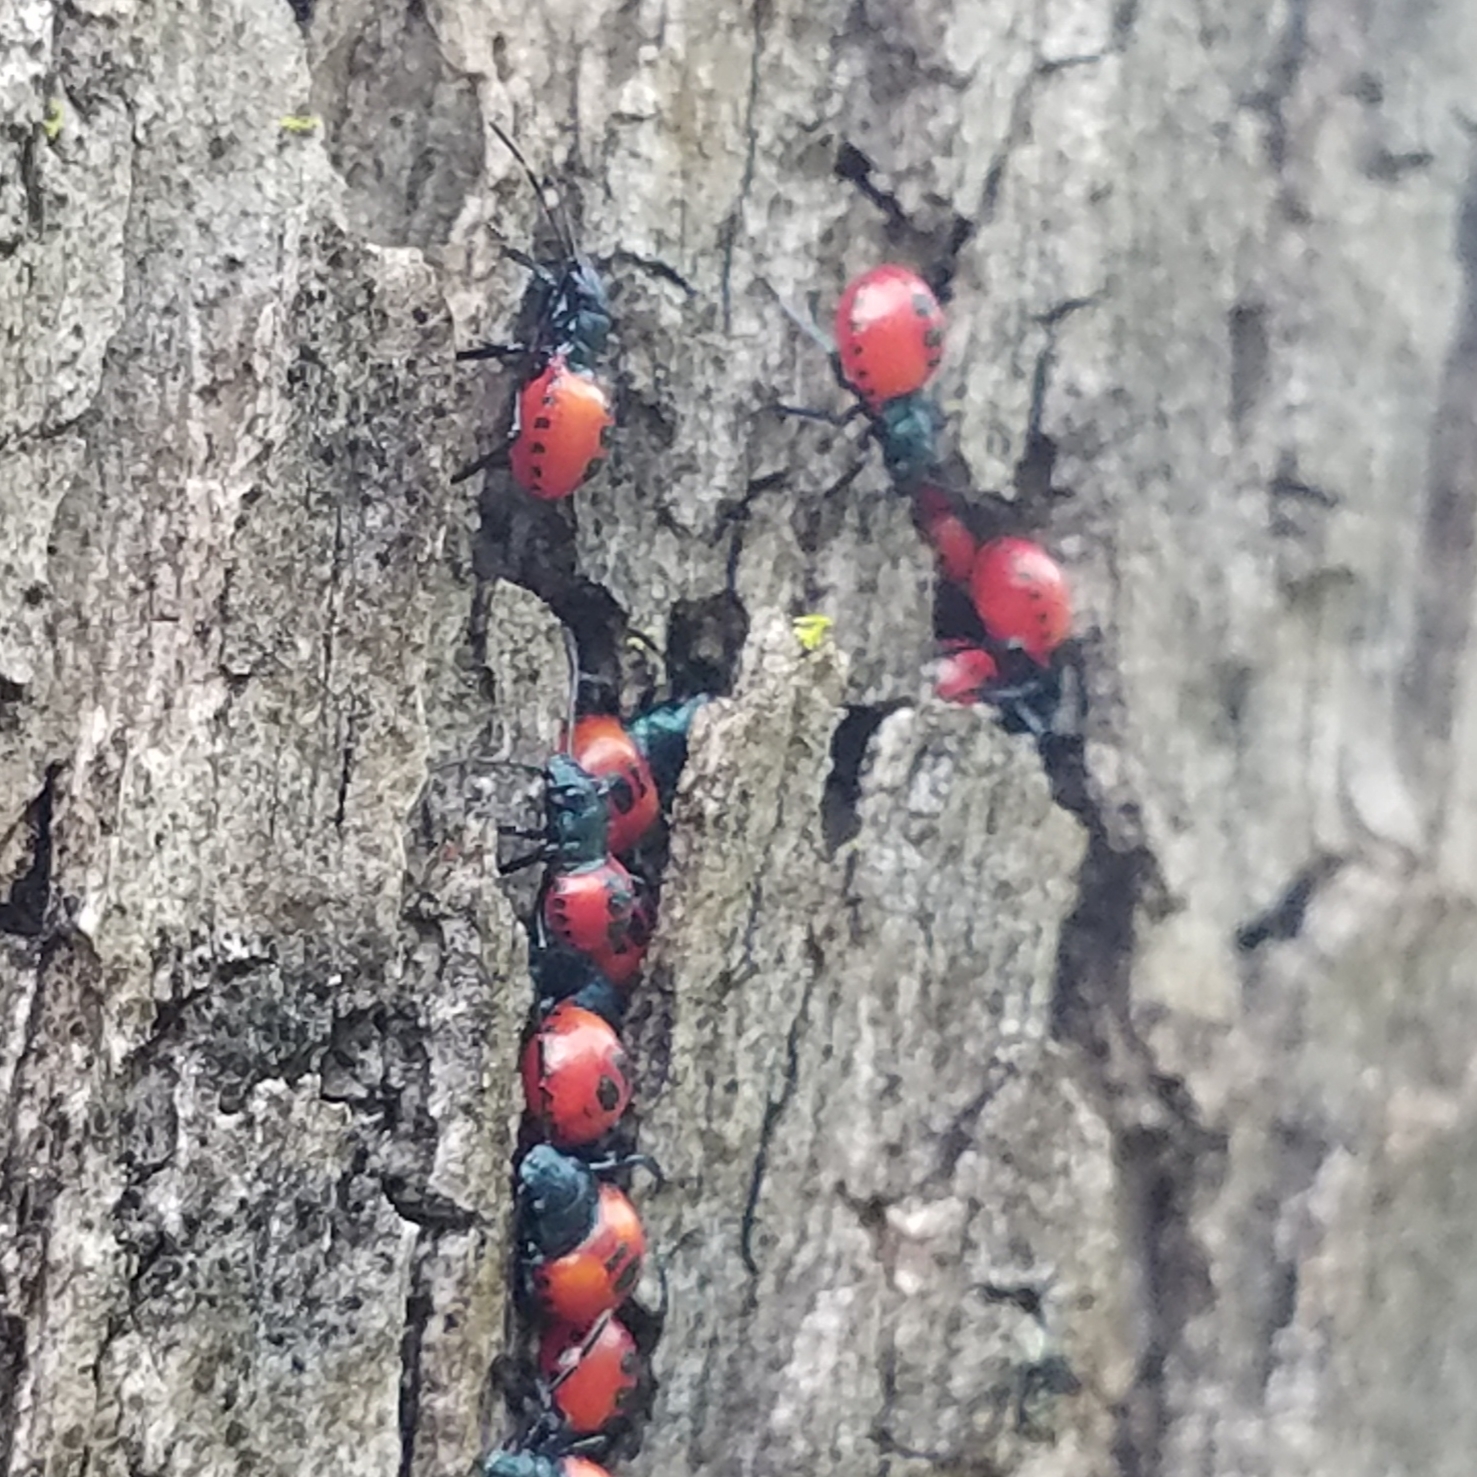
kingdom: Animalia
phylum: Arthropoda
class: Insecta
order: Hemiptera
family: Pentatomidae
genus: Euthyrhynchus
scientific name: Euthyrhynchus floridanus
